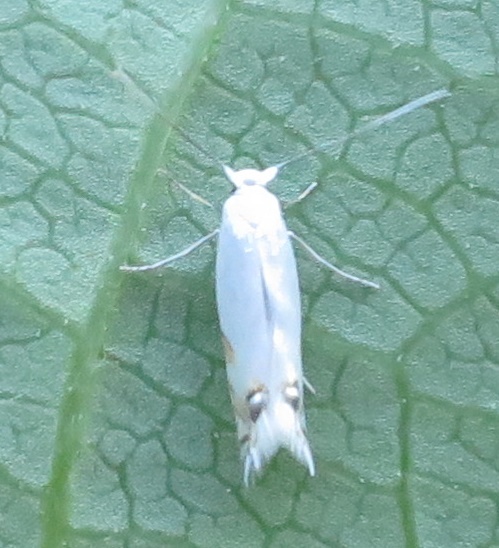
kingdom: Animalia
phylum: Arthropoda
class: Insecta
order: Lepidoptera
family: Lyonetiidae
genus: Leucoptera
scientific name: Leucoptera spartifoliella
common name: Scotch broom twig miner
